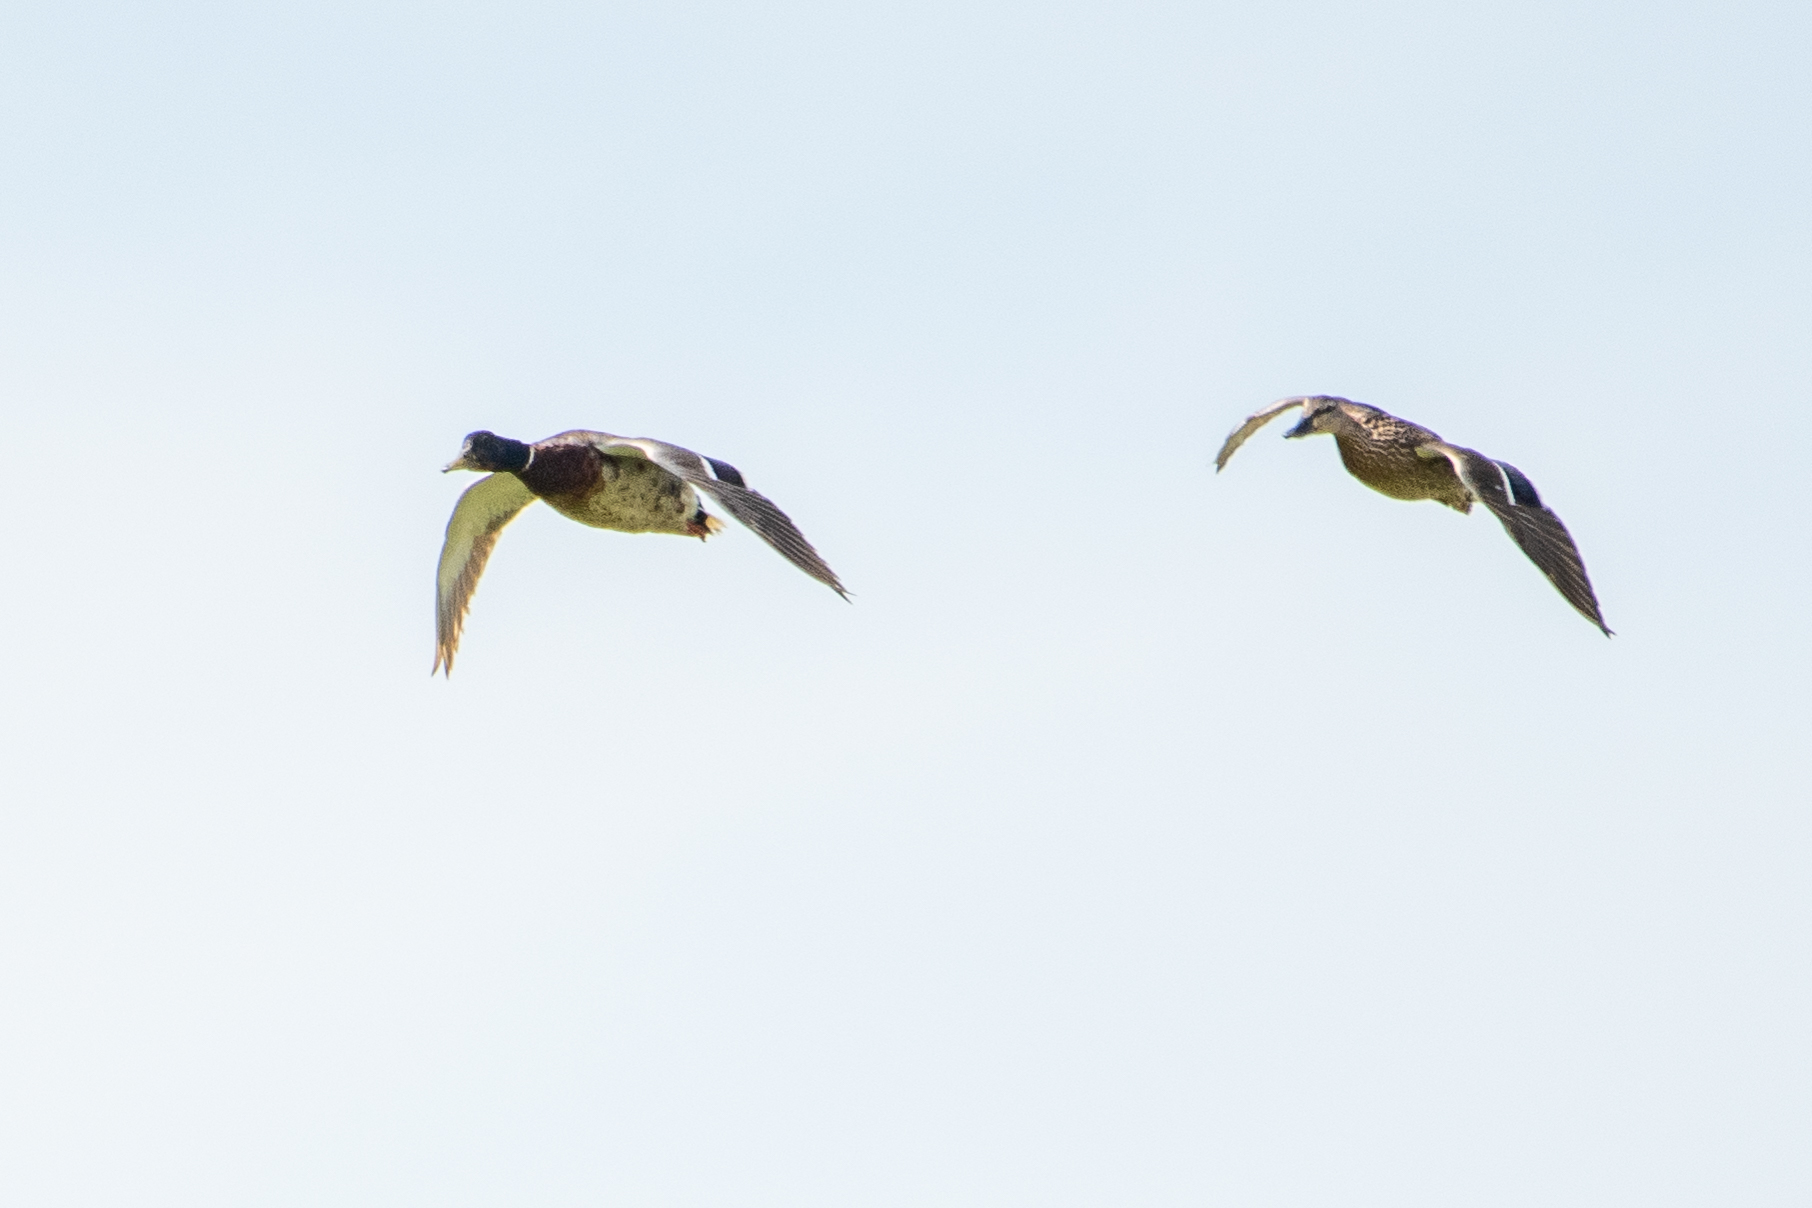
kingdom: Animalia
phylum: Chordata
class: Aves
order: Anseriformes
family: Anatidae
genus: Anas
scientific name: Anas platyrhynchos
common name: Mallard
